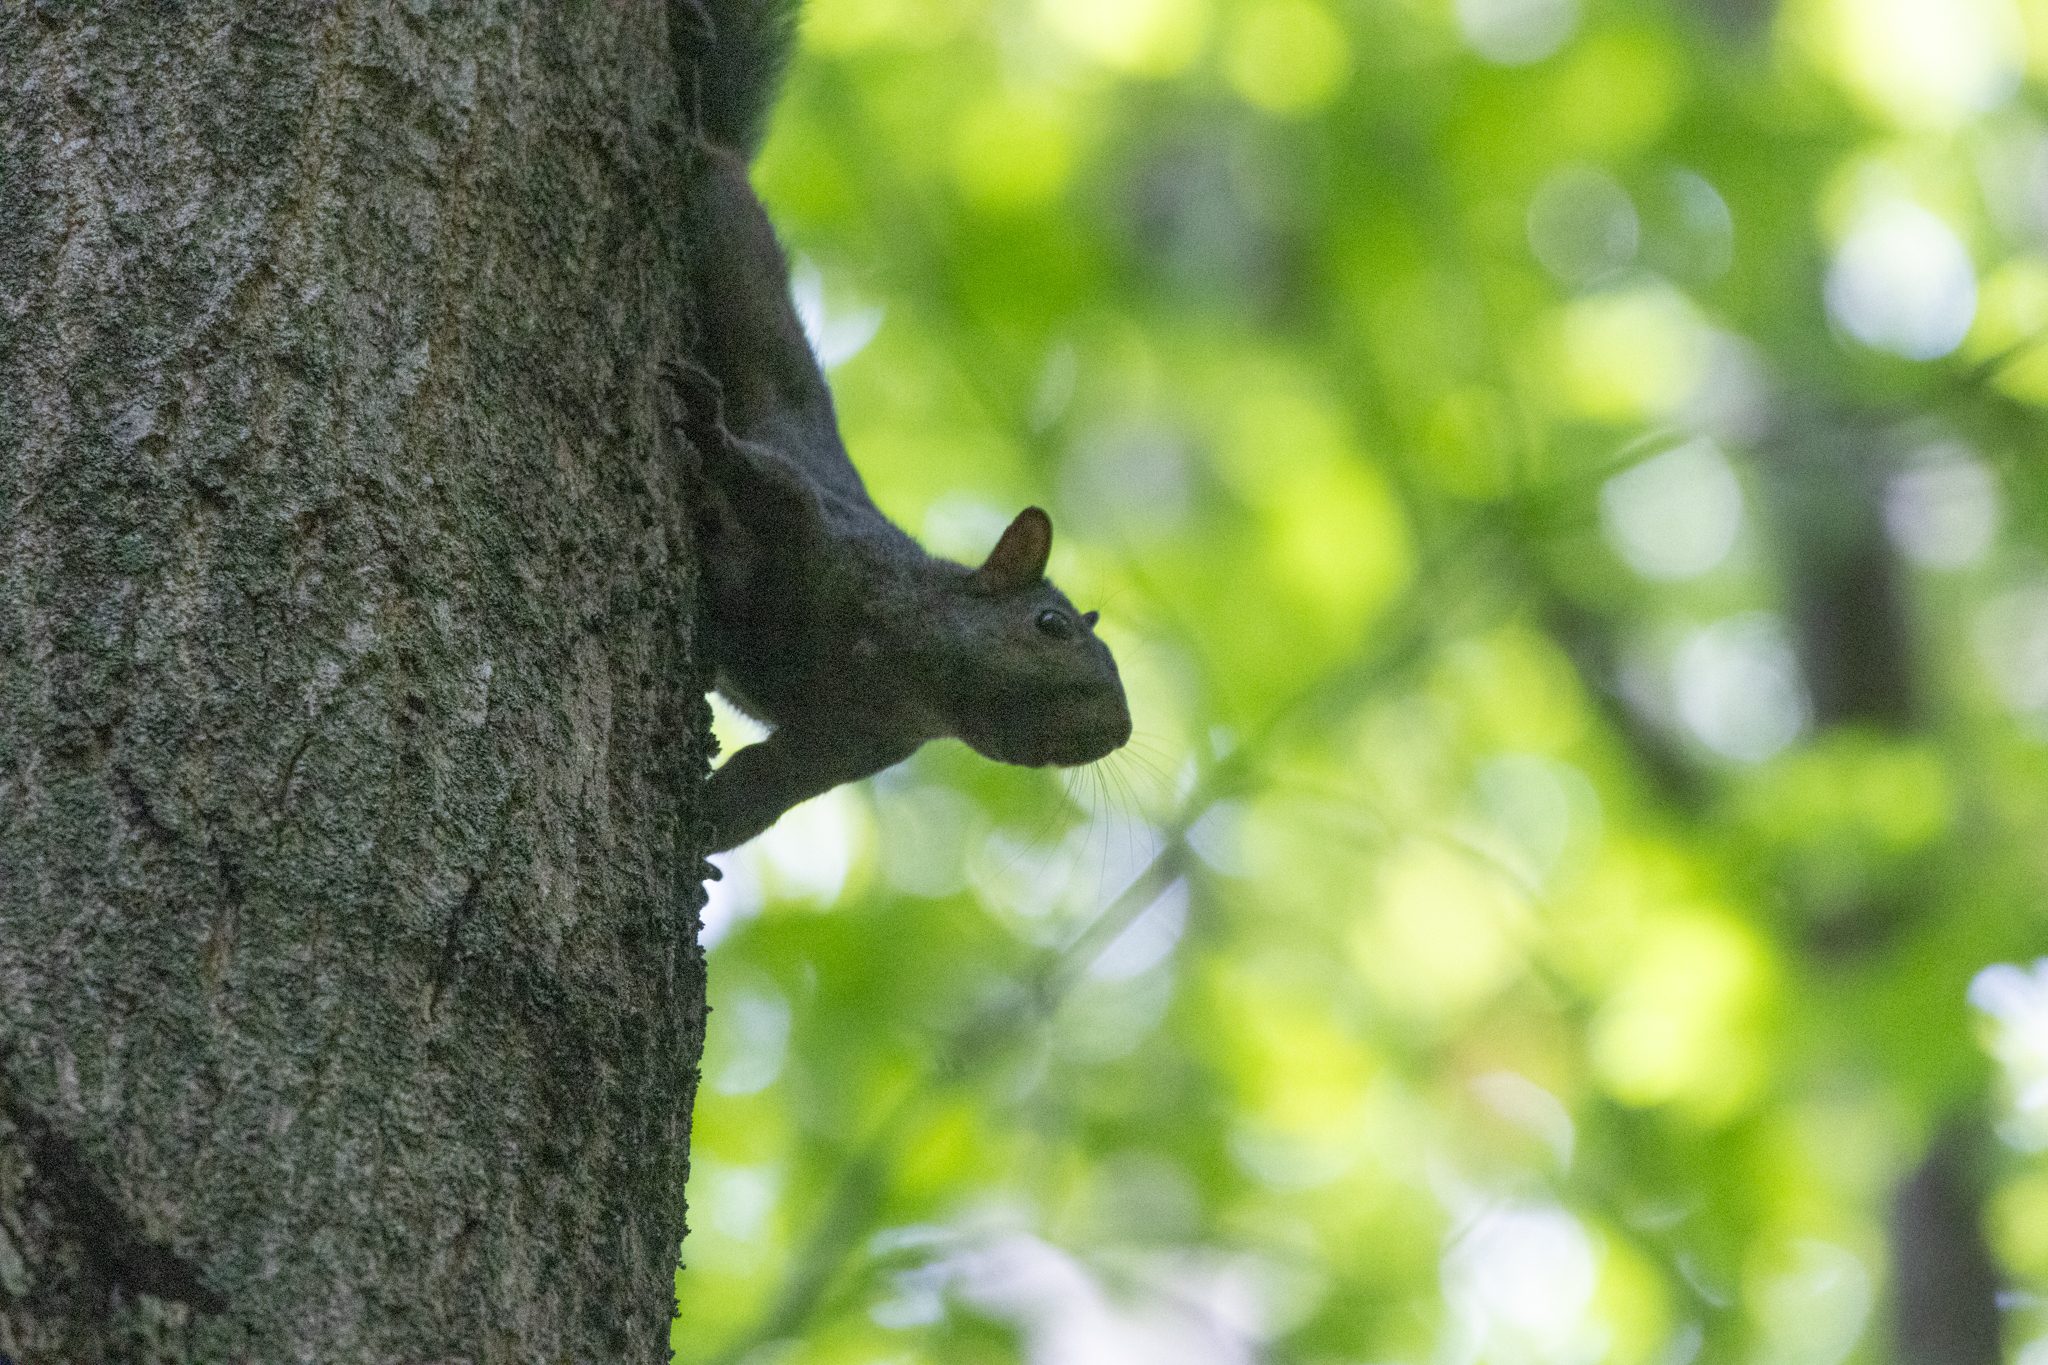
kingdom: Animalia
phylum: Chordata
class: Mammalia
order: Rodentia
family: Sciuridae
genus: Sciurus
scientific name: Sciurus carolinensis
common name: Eastern gray squirrel
